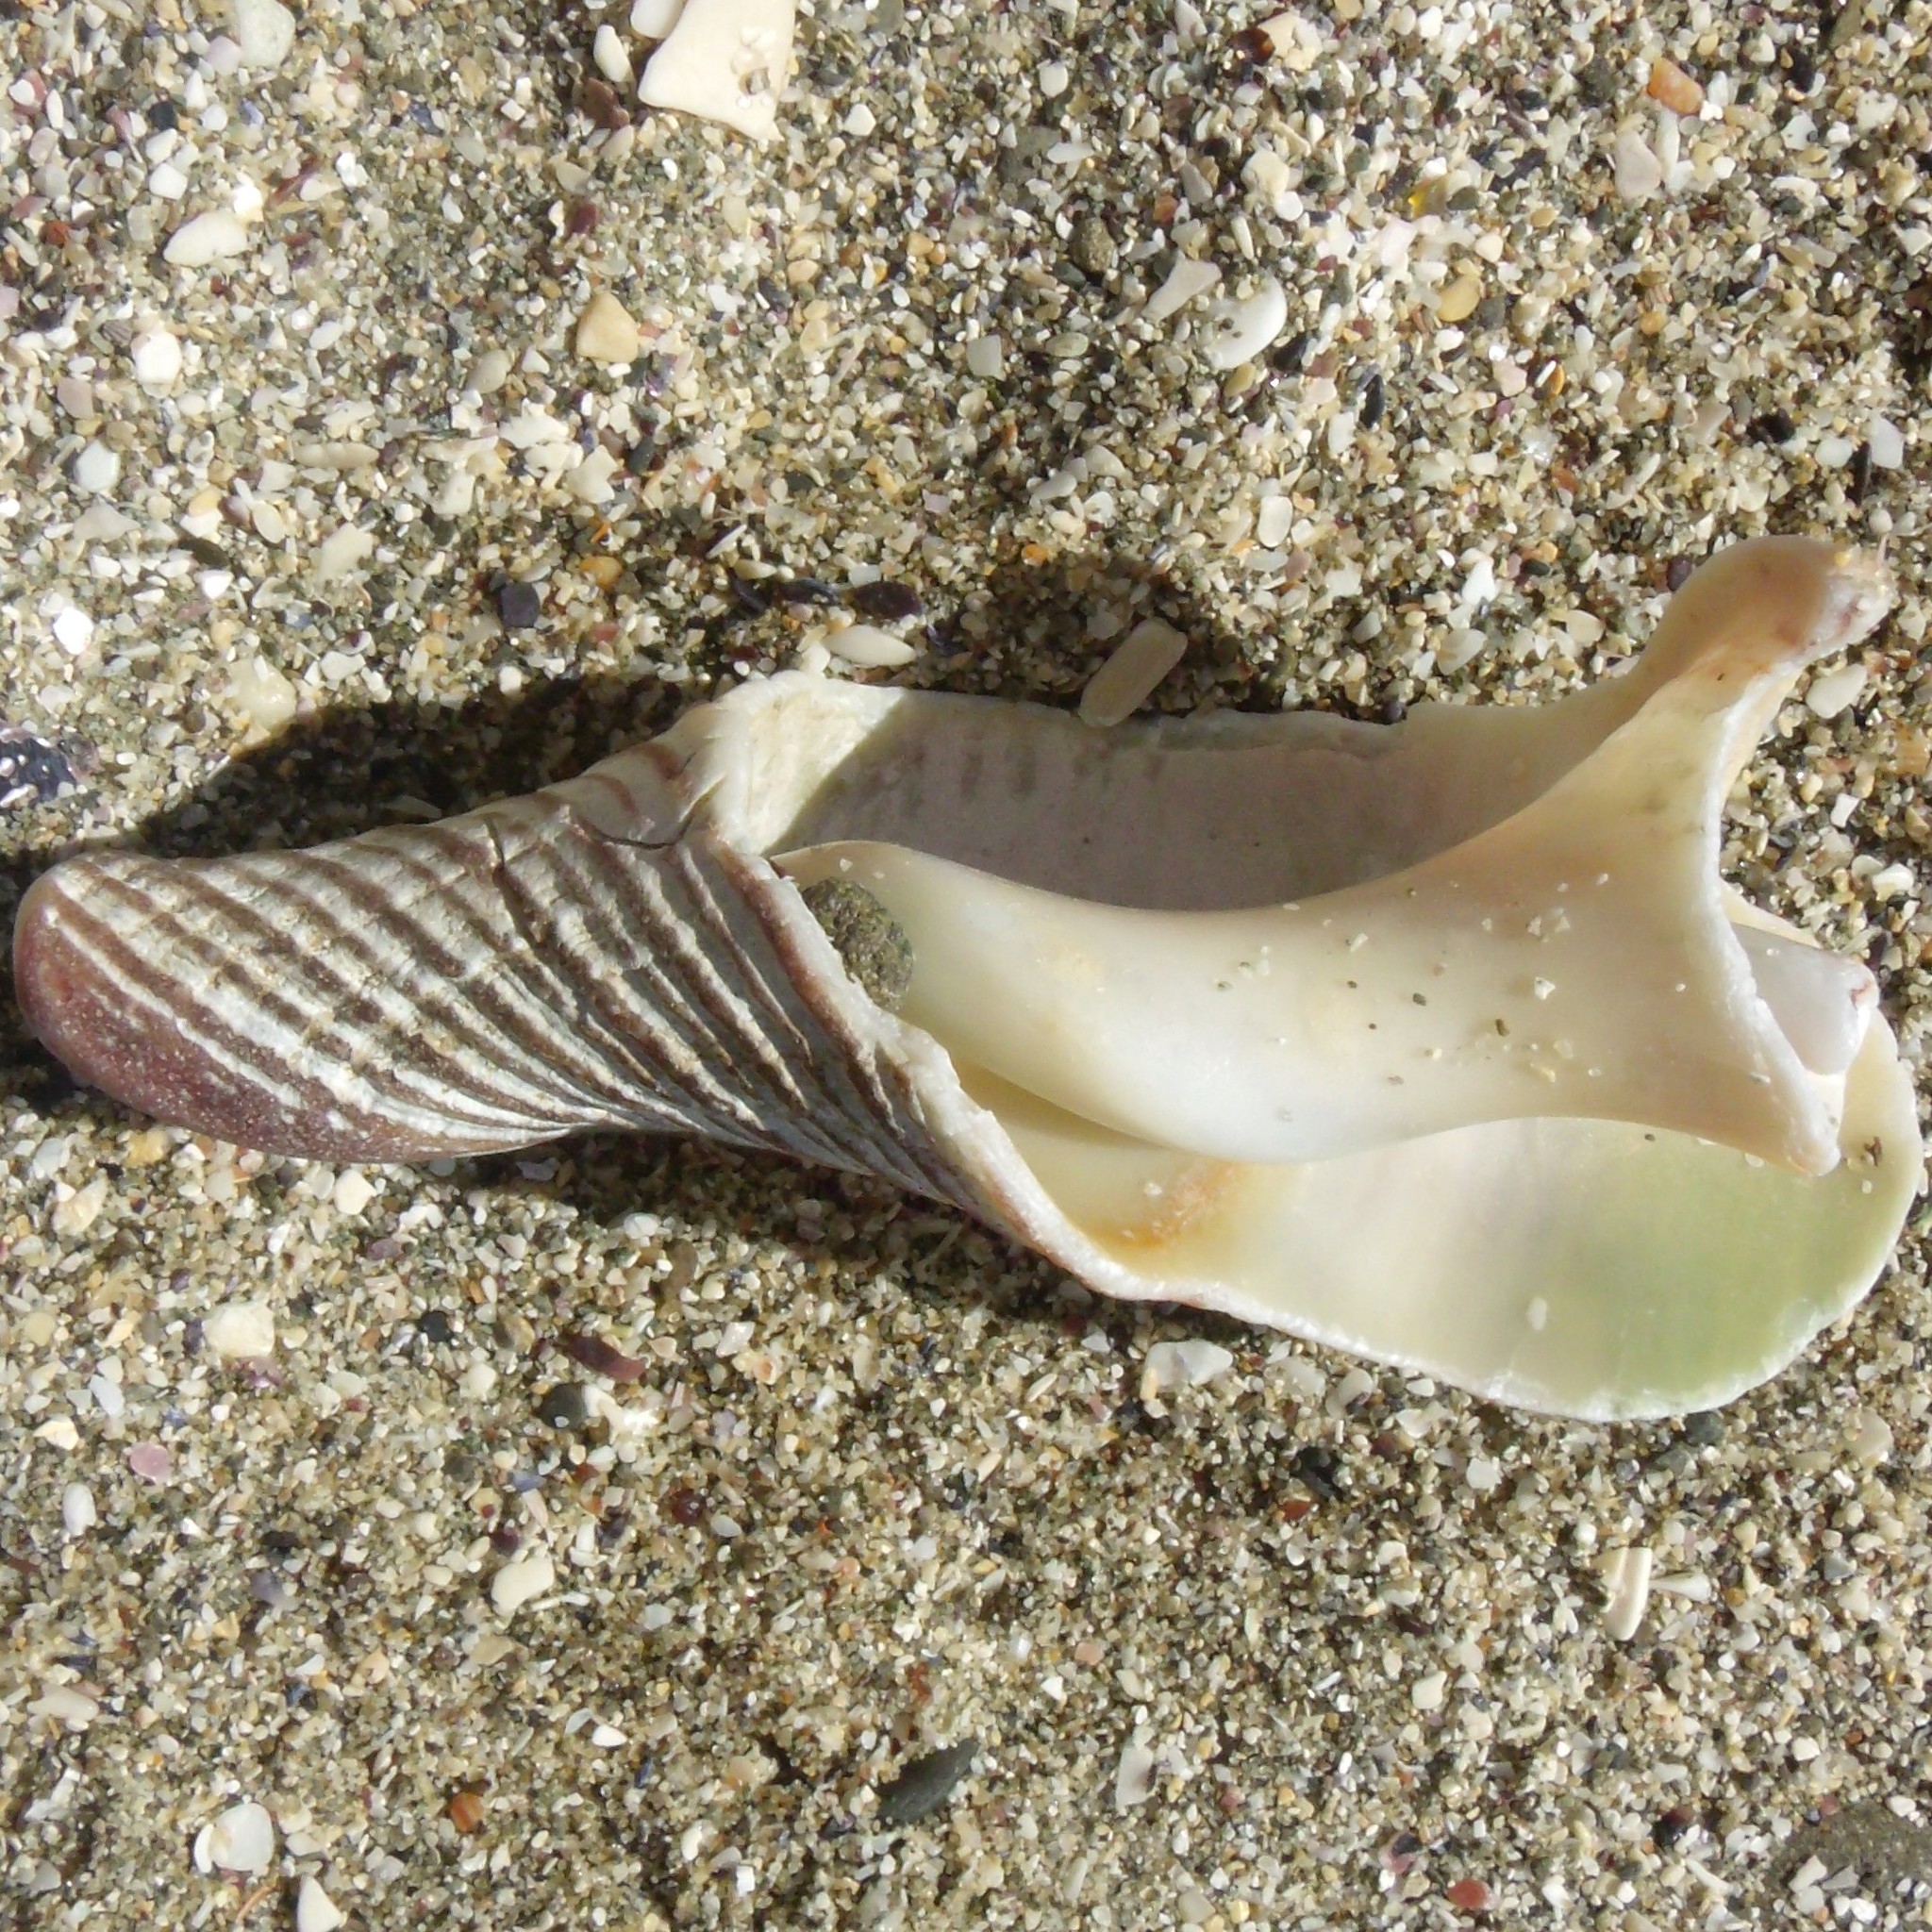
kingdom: Animalia
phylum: Mollusca
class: Gastropoda
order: Neogastropoda
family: Austrosiphonidae
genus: Penion
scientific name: Penion sulcatus
